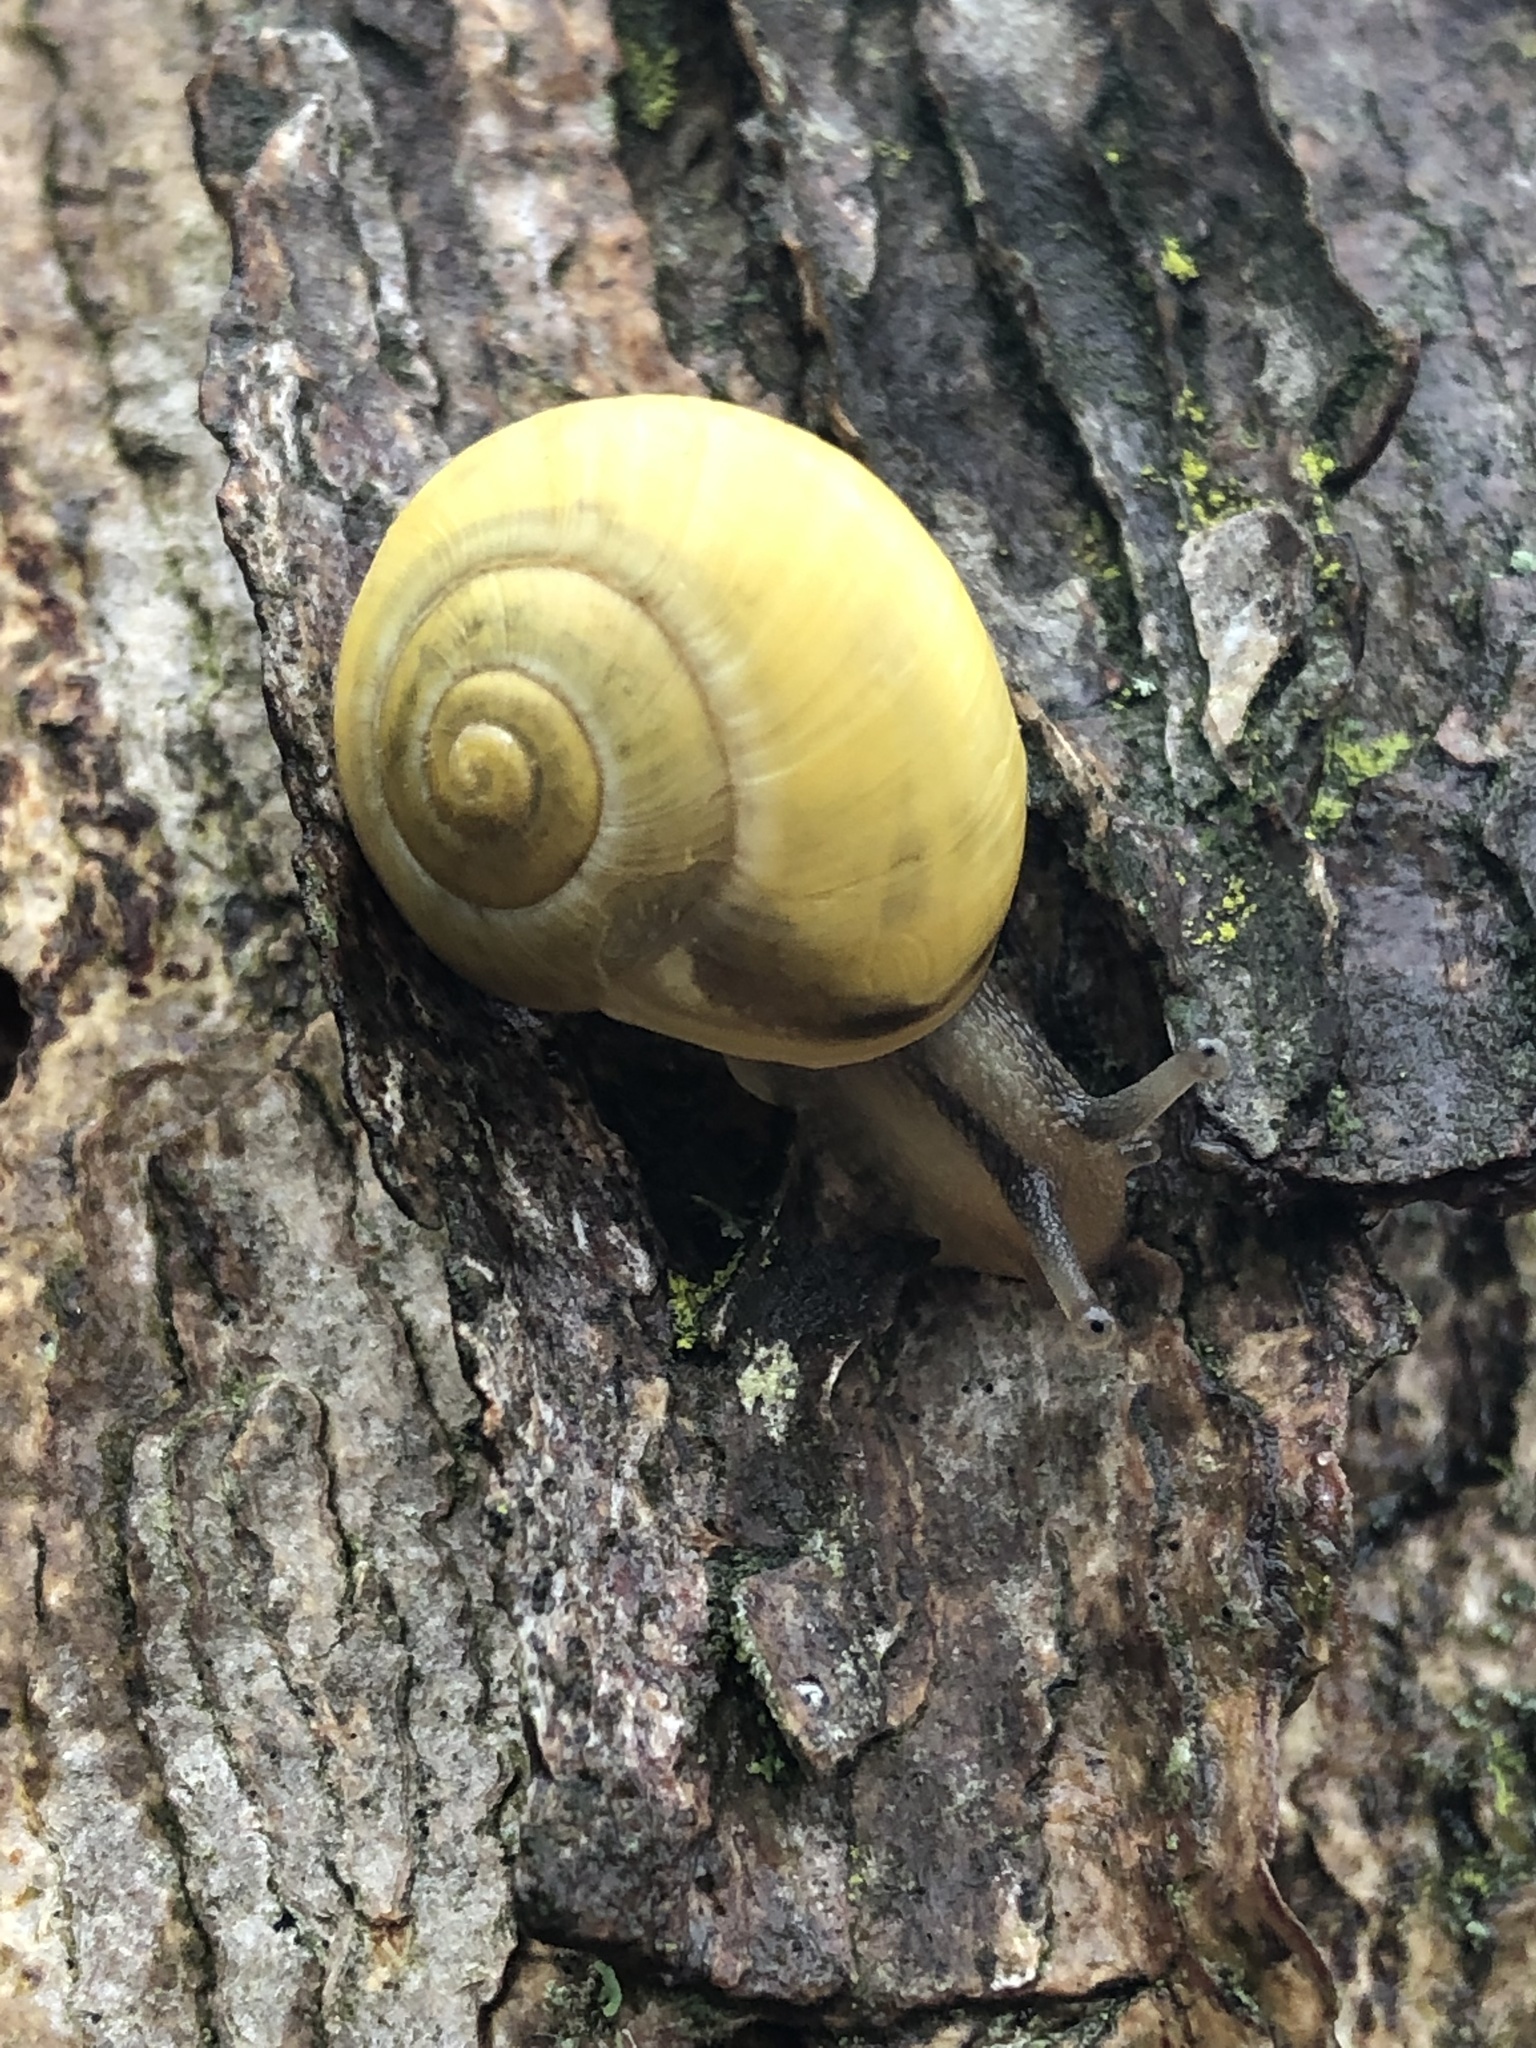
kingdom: Animalia
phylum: Mollusca
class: Gastropoda
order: Stylommatophora
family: Helicidae
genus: Cepaea
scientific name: Cepaea
